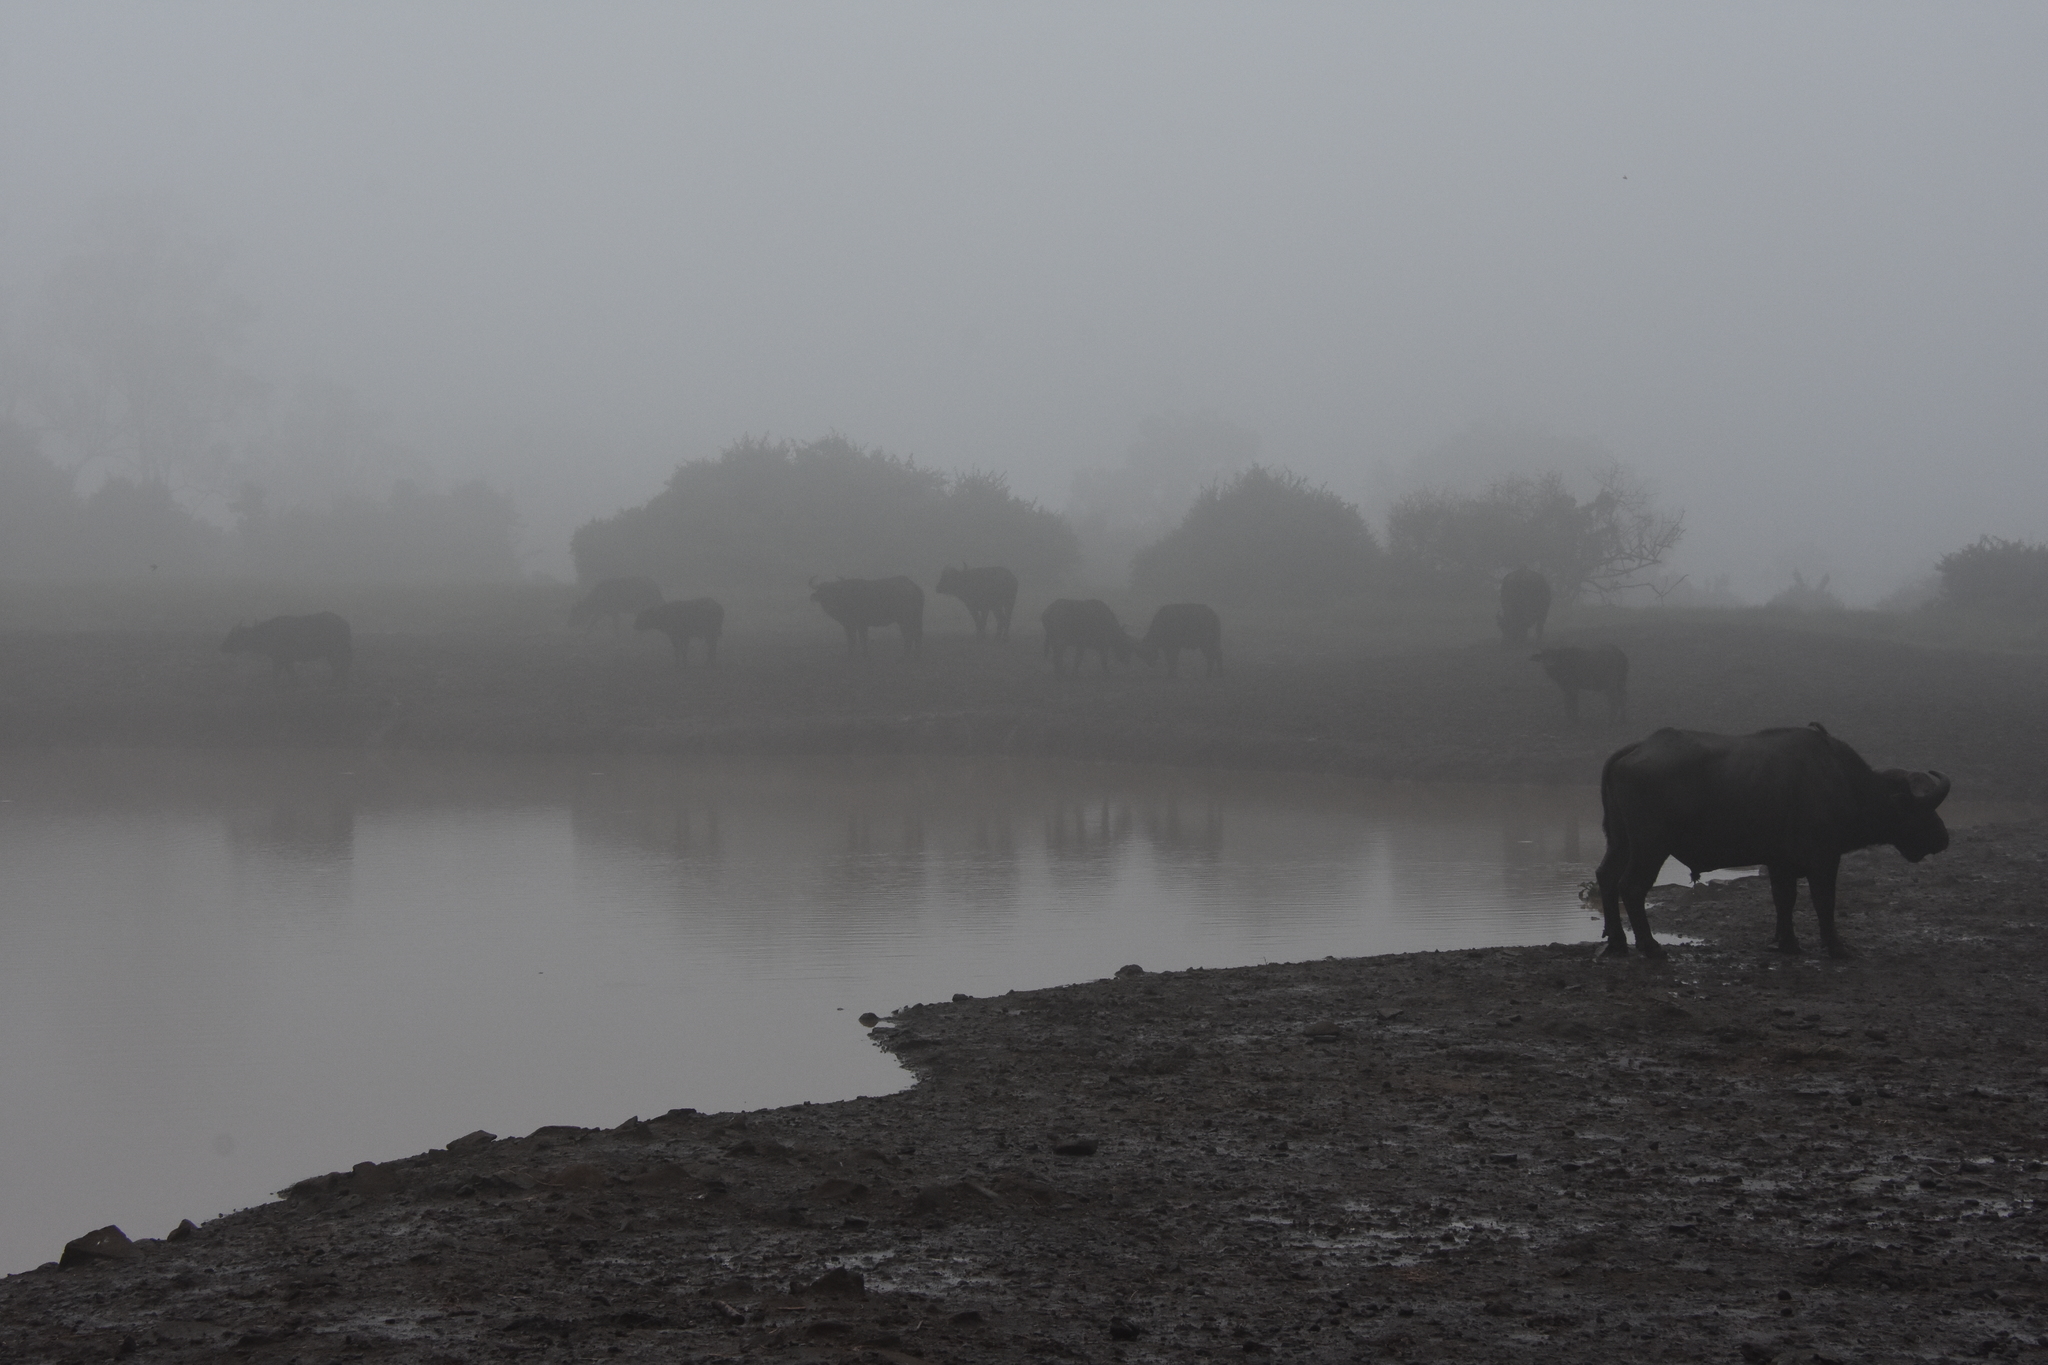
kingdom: Animalia
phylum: Chordata
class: Mammalia
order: Artiodactyla
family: Bovidae
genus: Syncerus
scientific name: Syncerus caffer
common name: African buffalo
